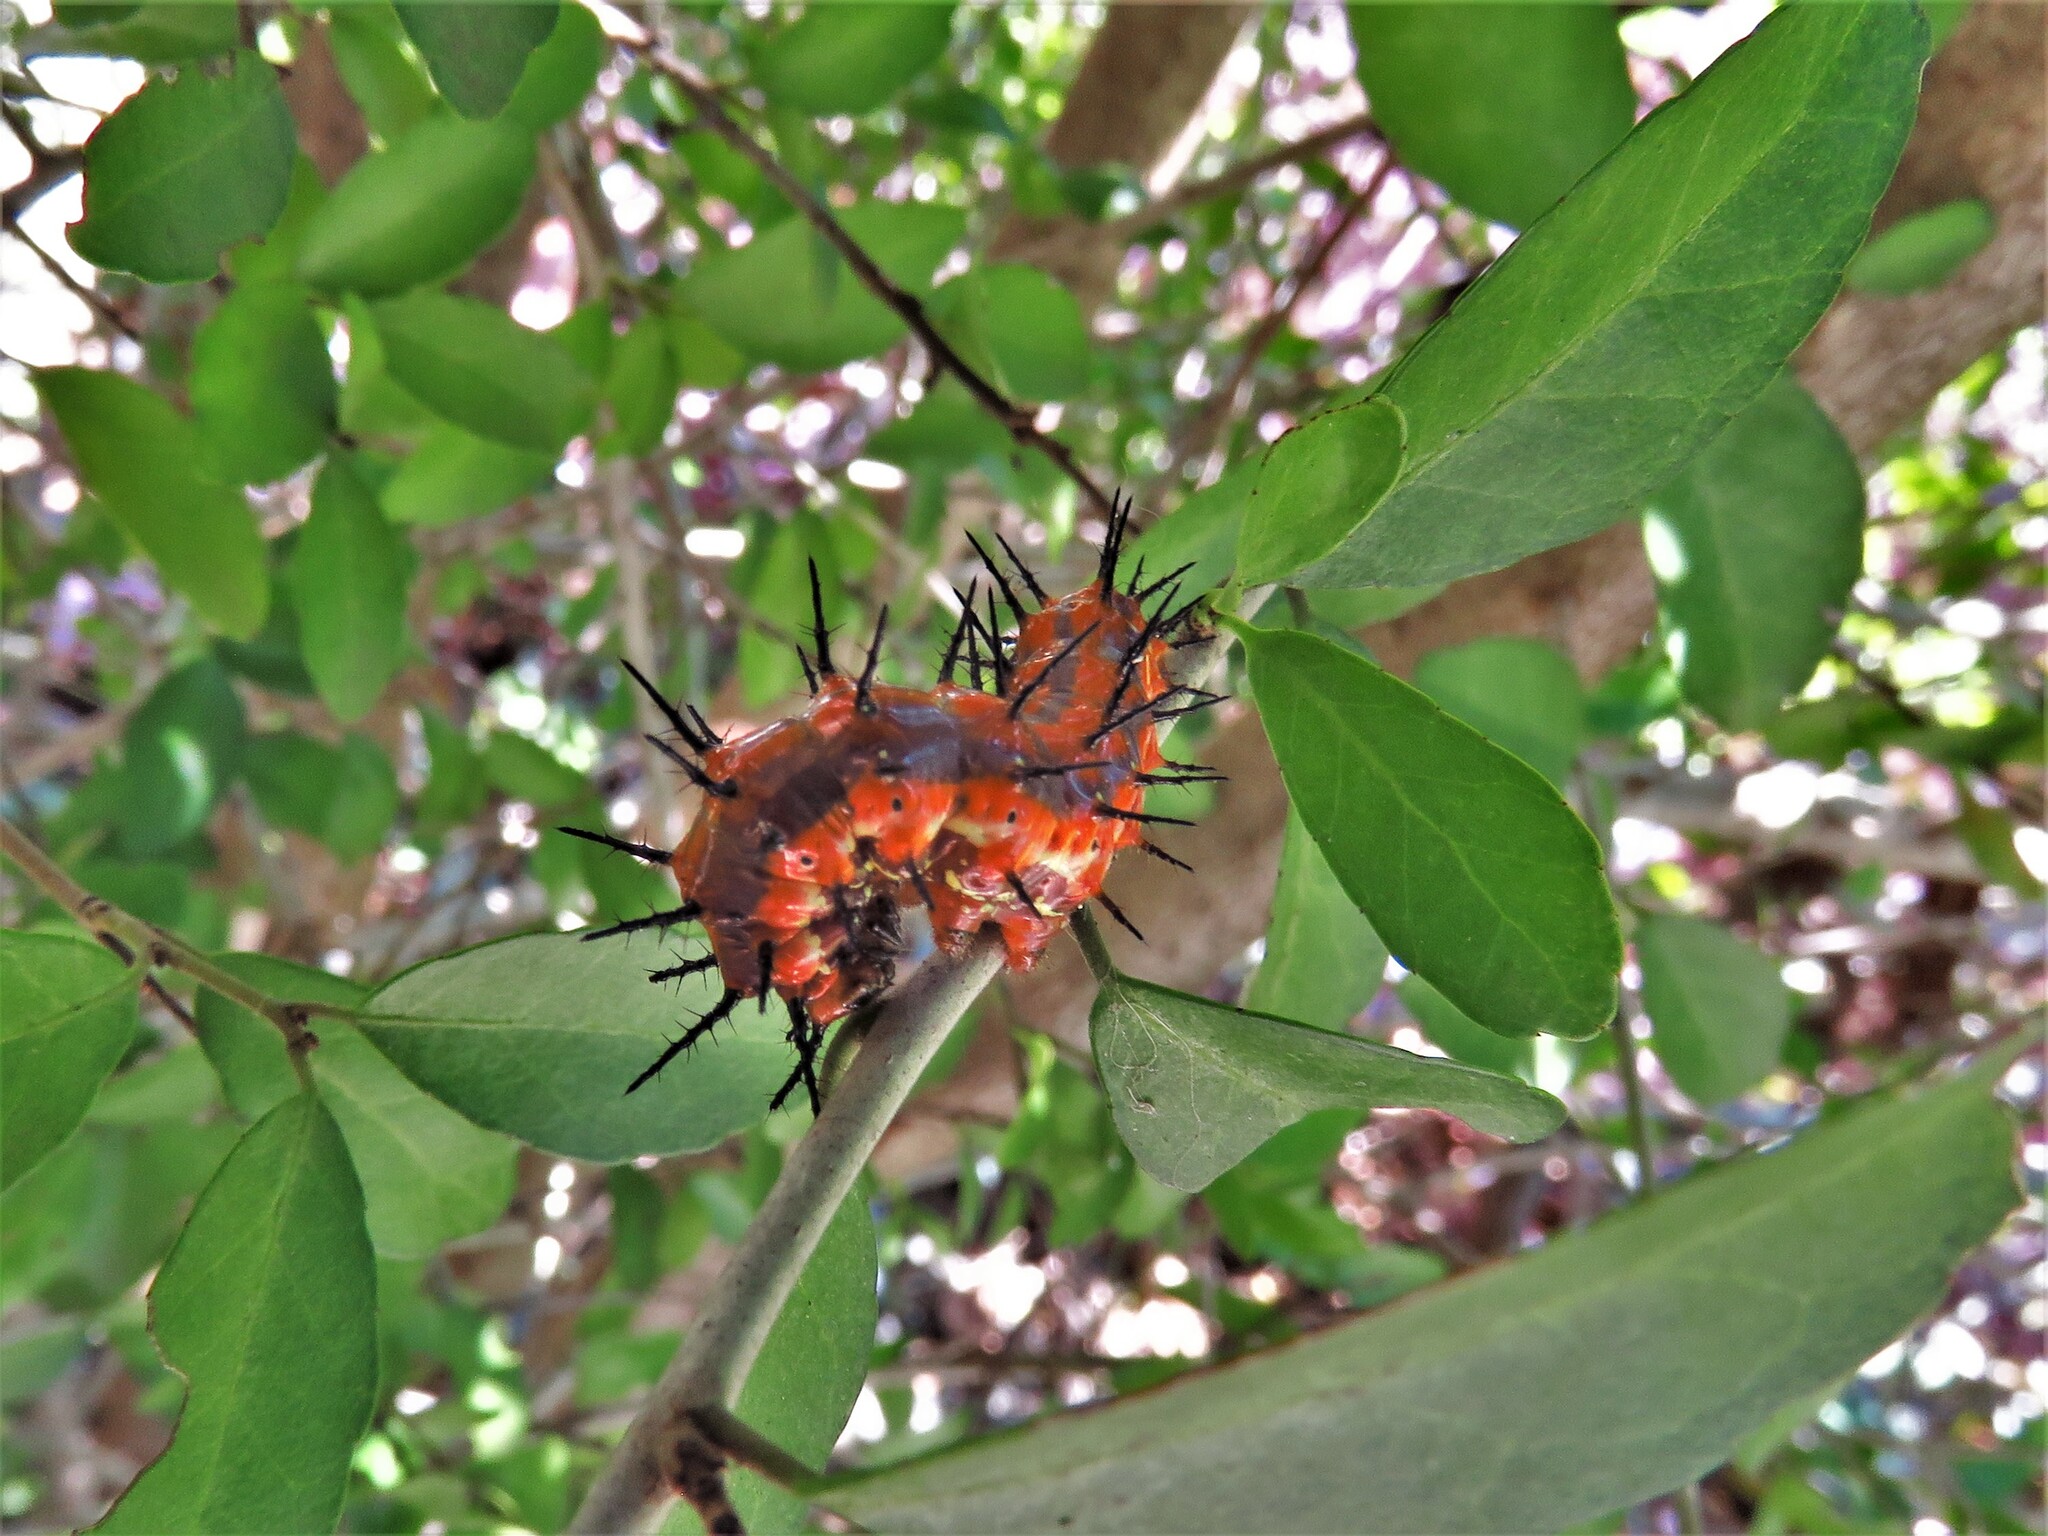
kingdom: Animalia
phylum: Arthropoda
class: Insecta
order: Lepidoptera
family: Nymphalidae
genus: Dione
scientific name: Dione vanillae
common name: Gulf fritillary
